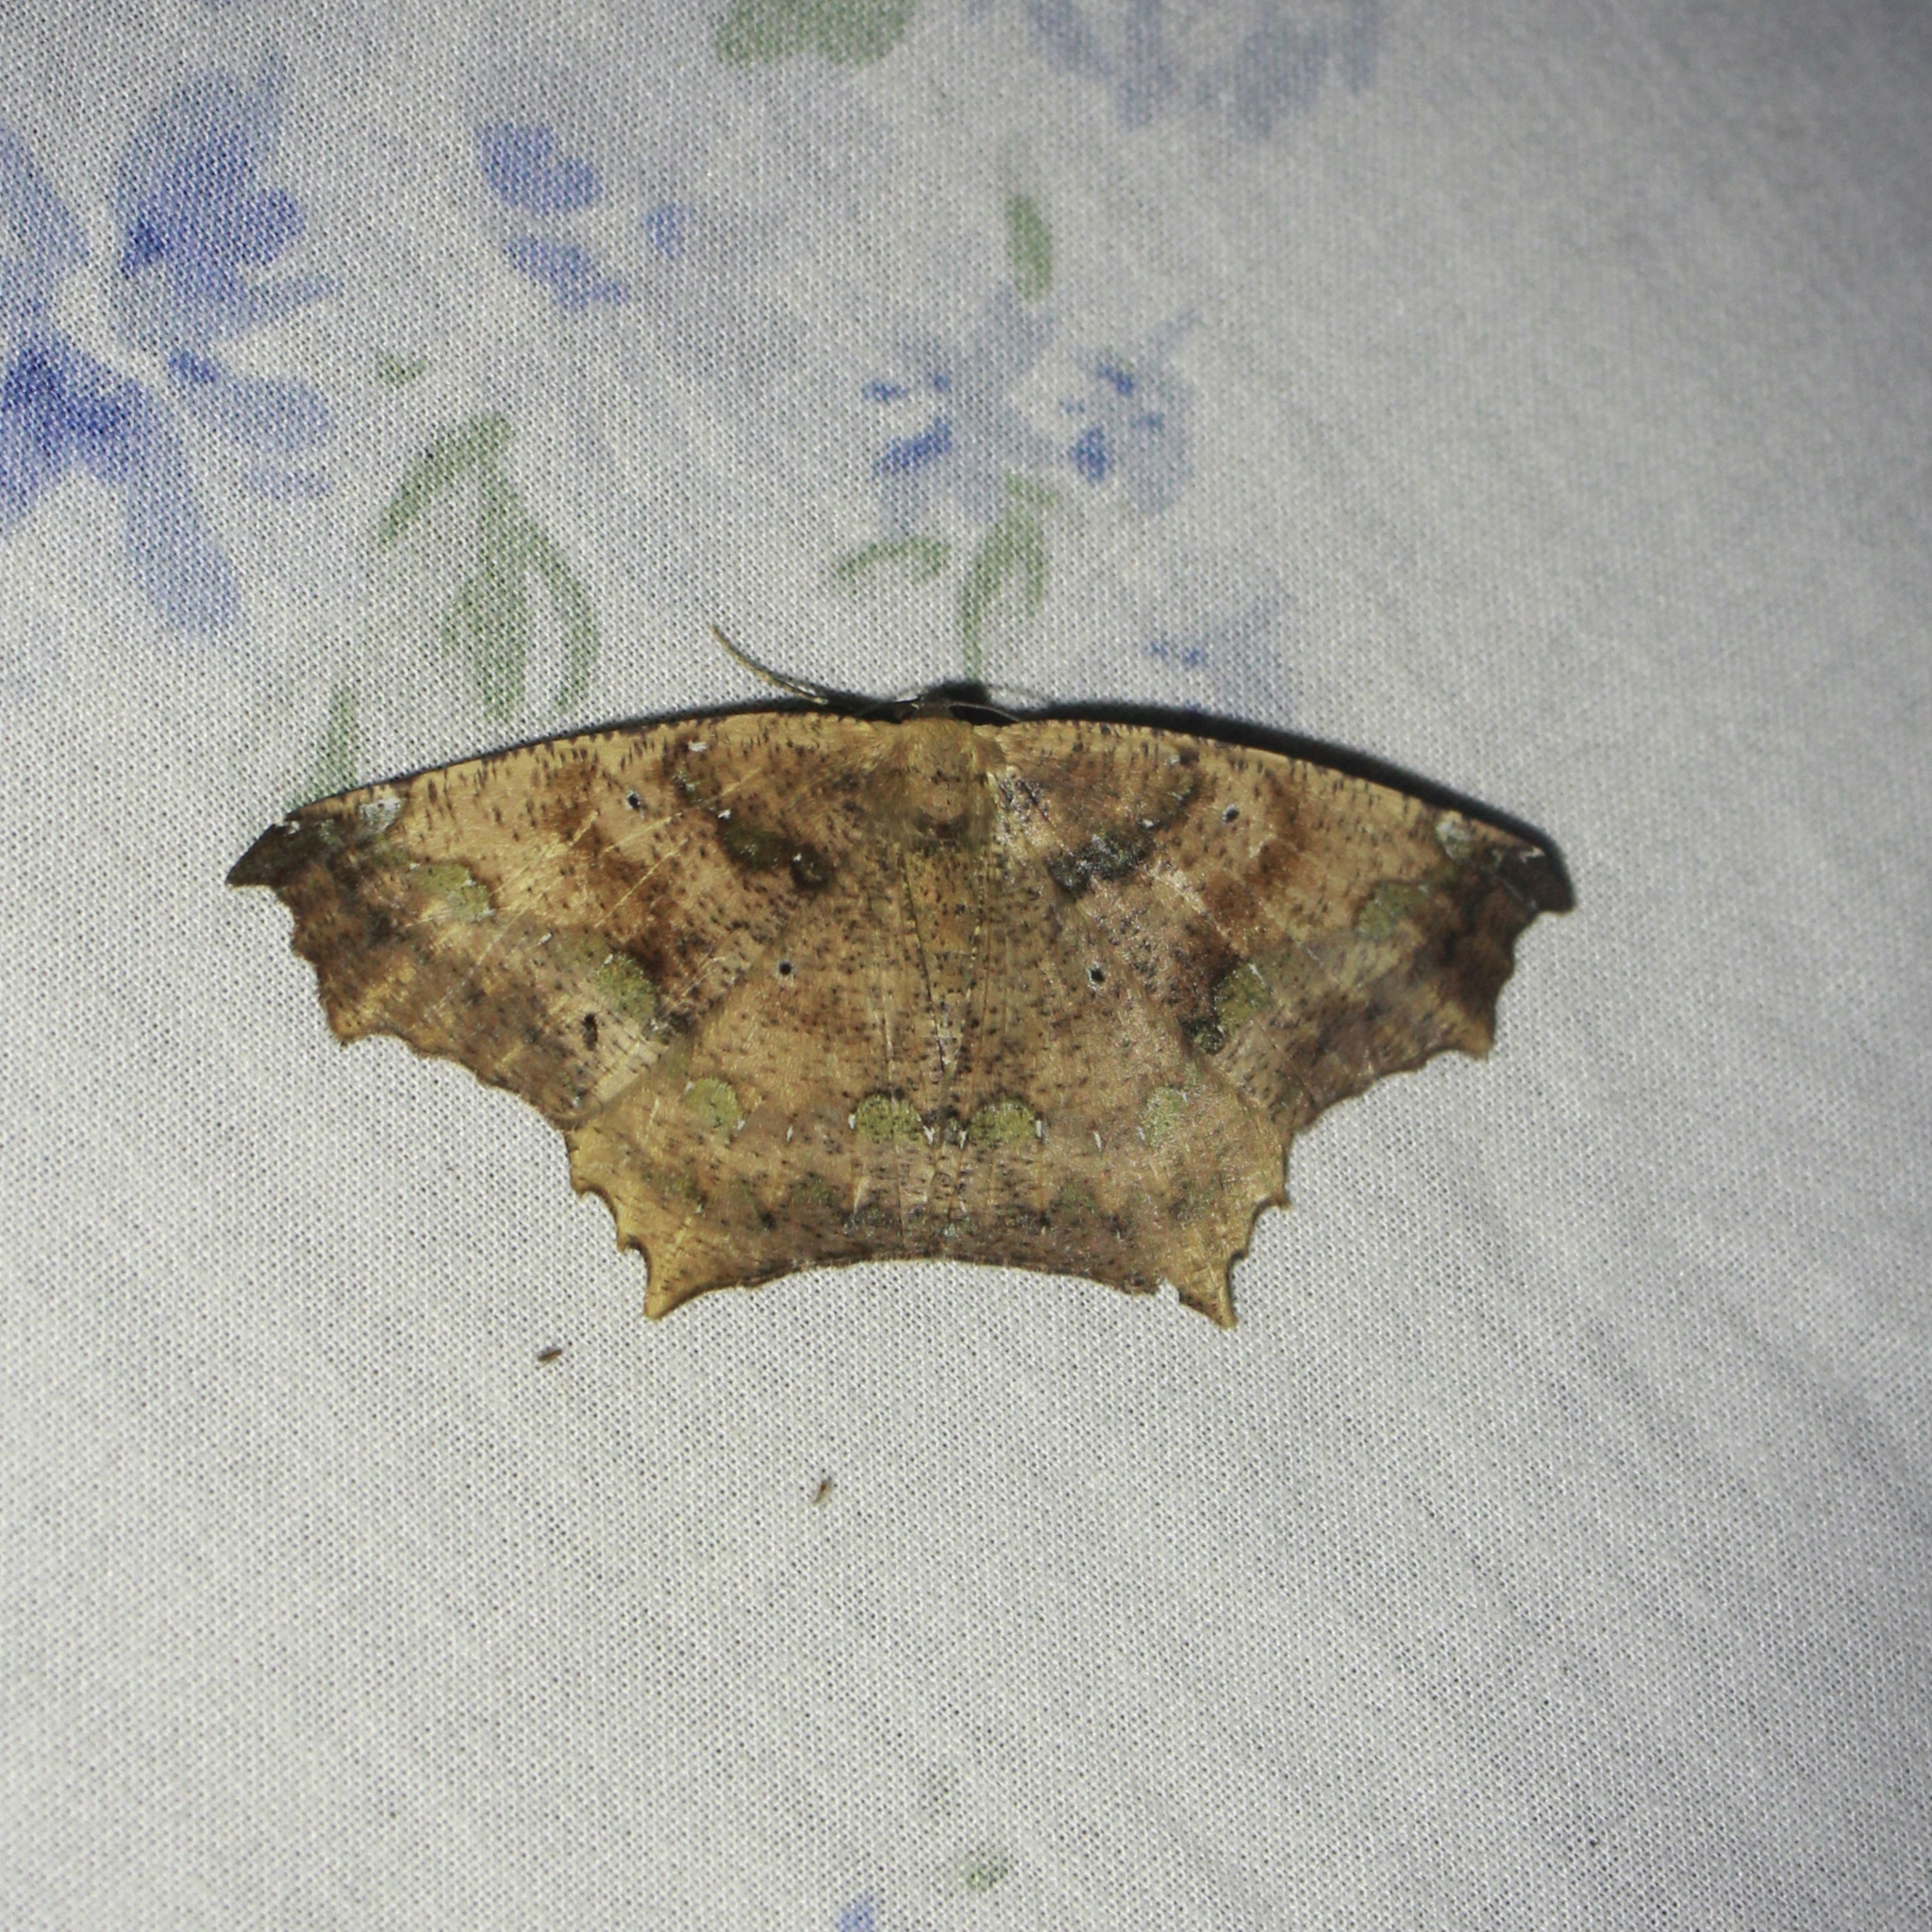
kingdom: Animalia
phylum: Arthropoda
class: Insecta
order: Lepidoptera
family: Geometridae
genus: Paragonia
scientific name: Paragonia cruraria
